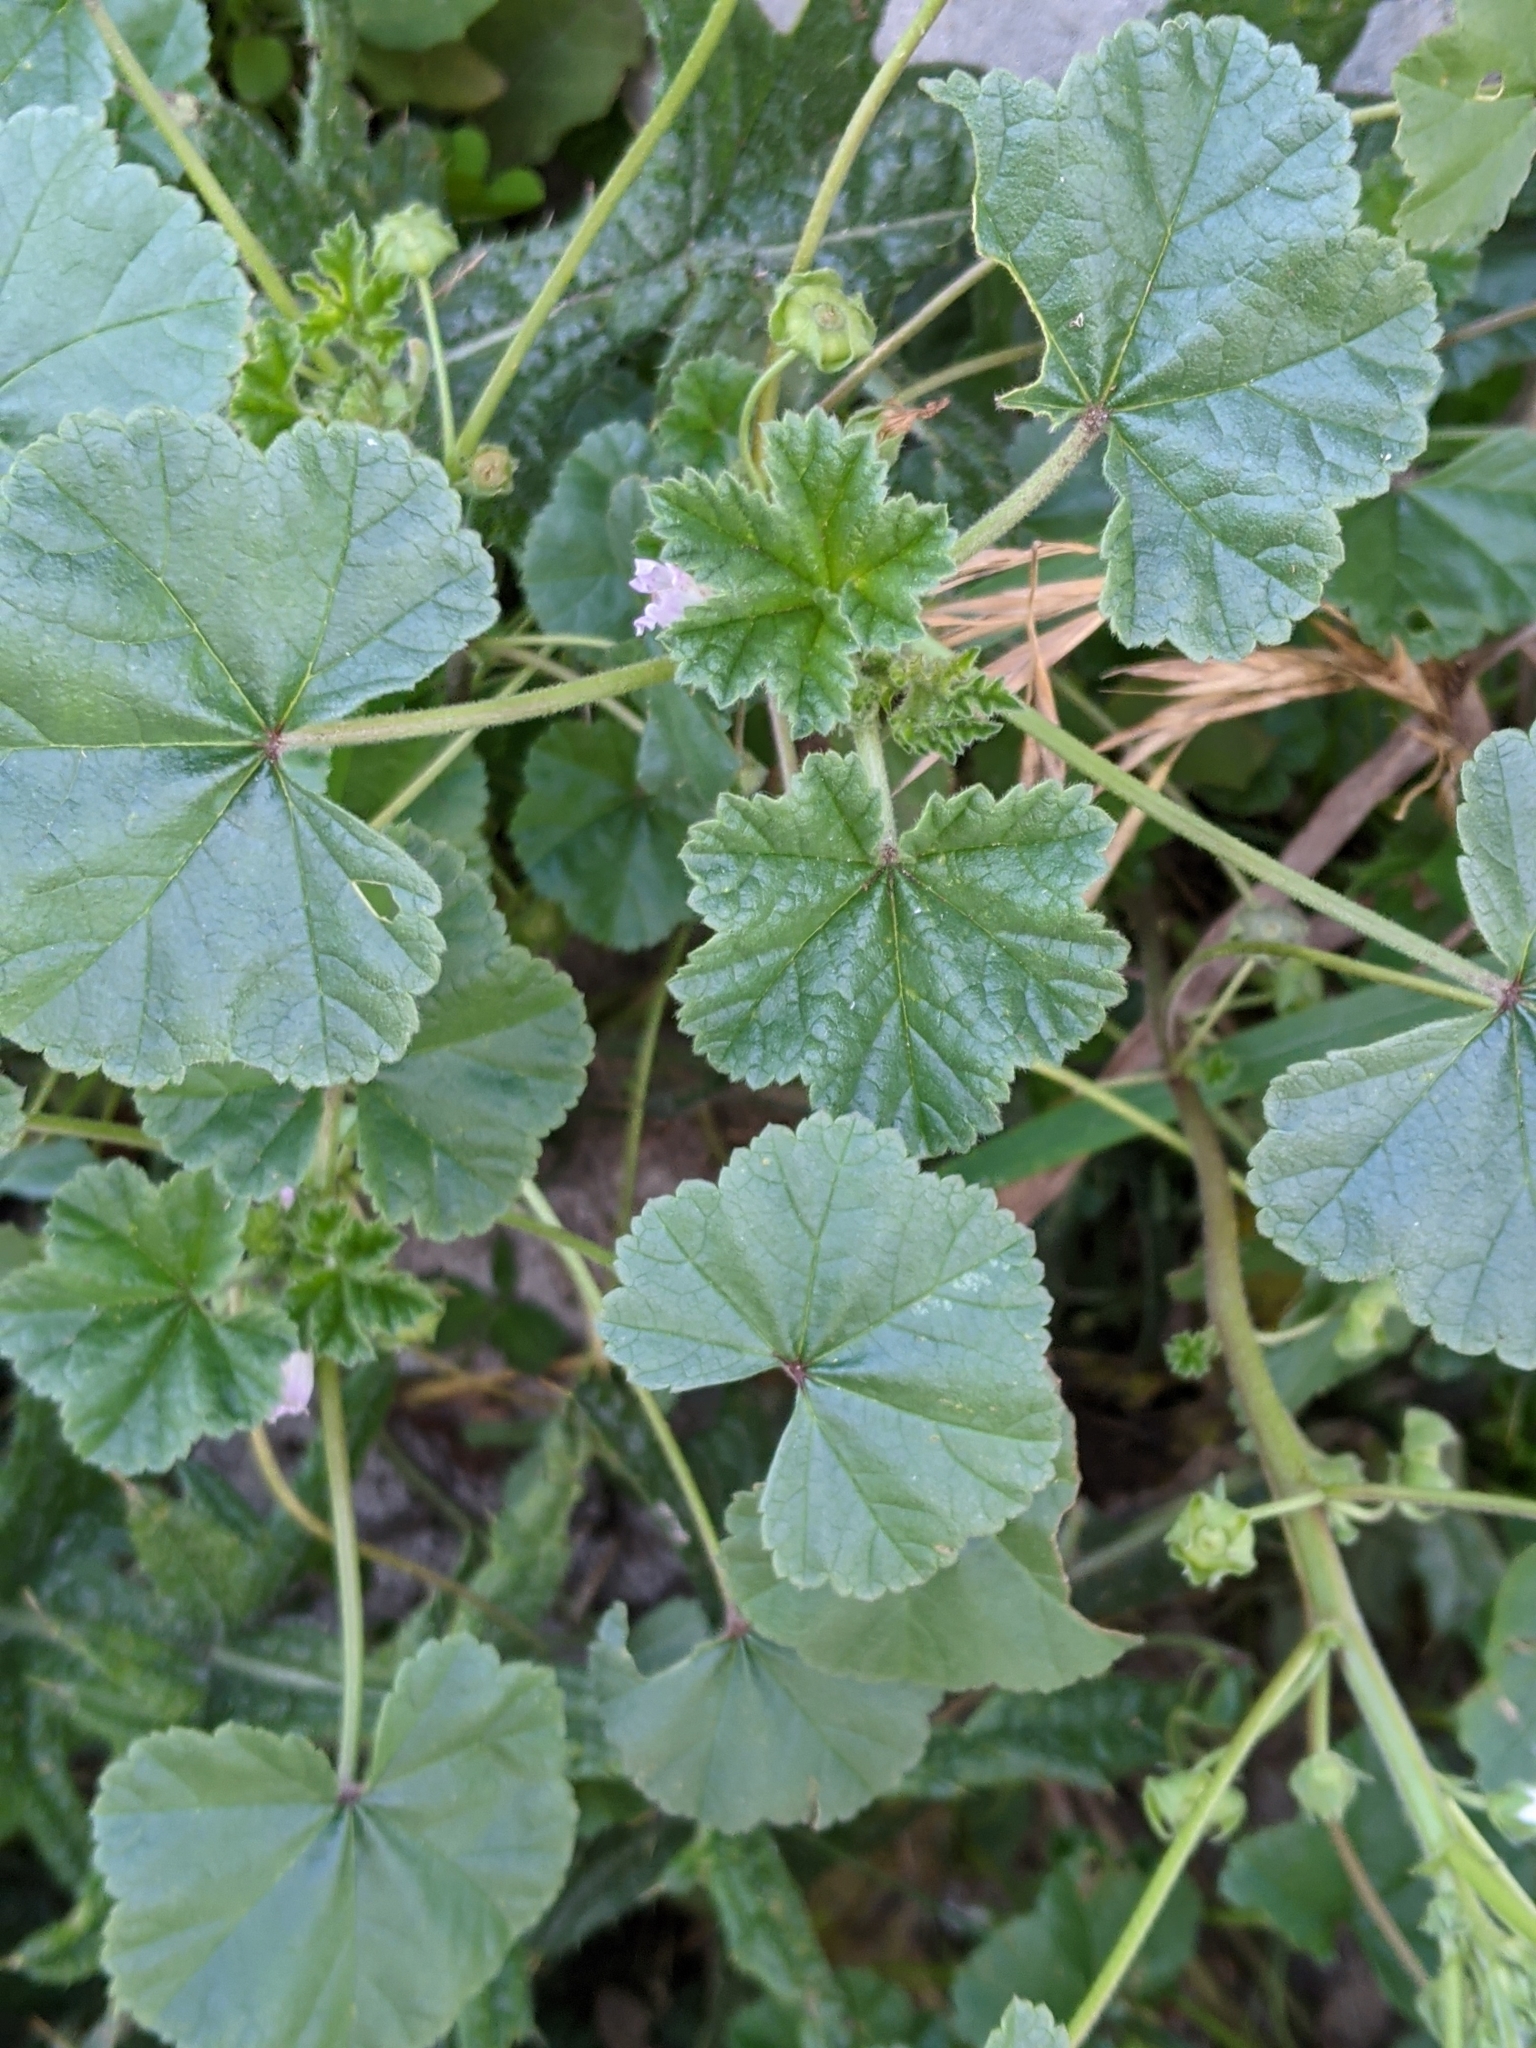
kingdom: Plantae
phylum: Tracheophyta
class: Magnoliopsida
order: Malvales
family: Malvaceae
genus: Malva
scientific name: Malva neglecta
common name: Common mallow
